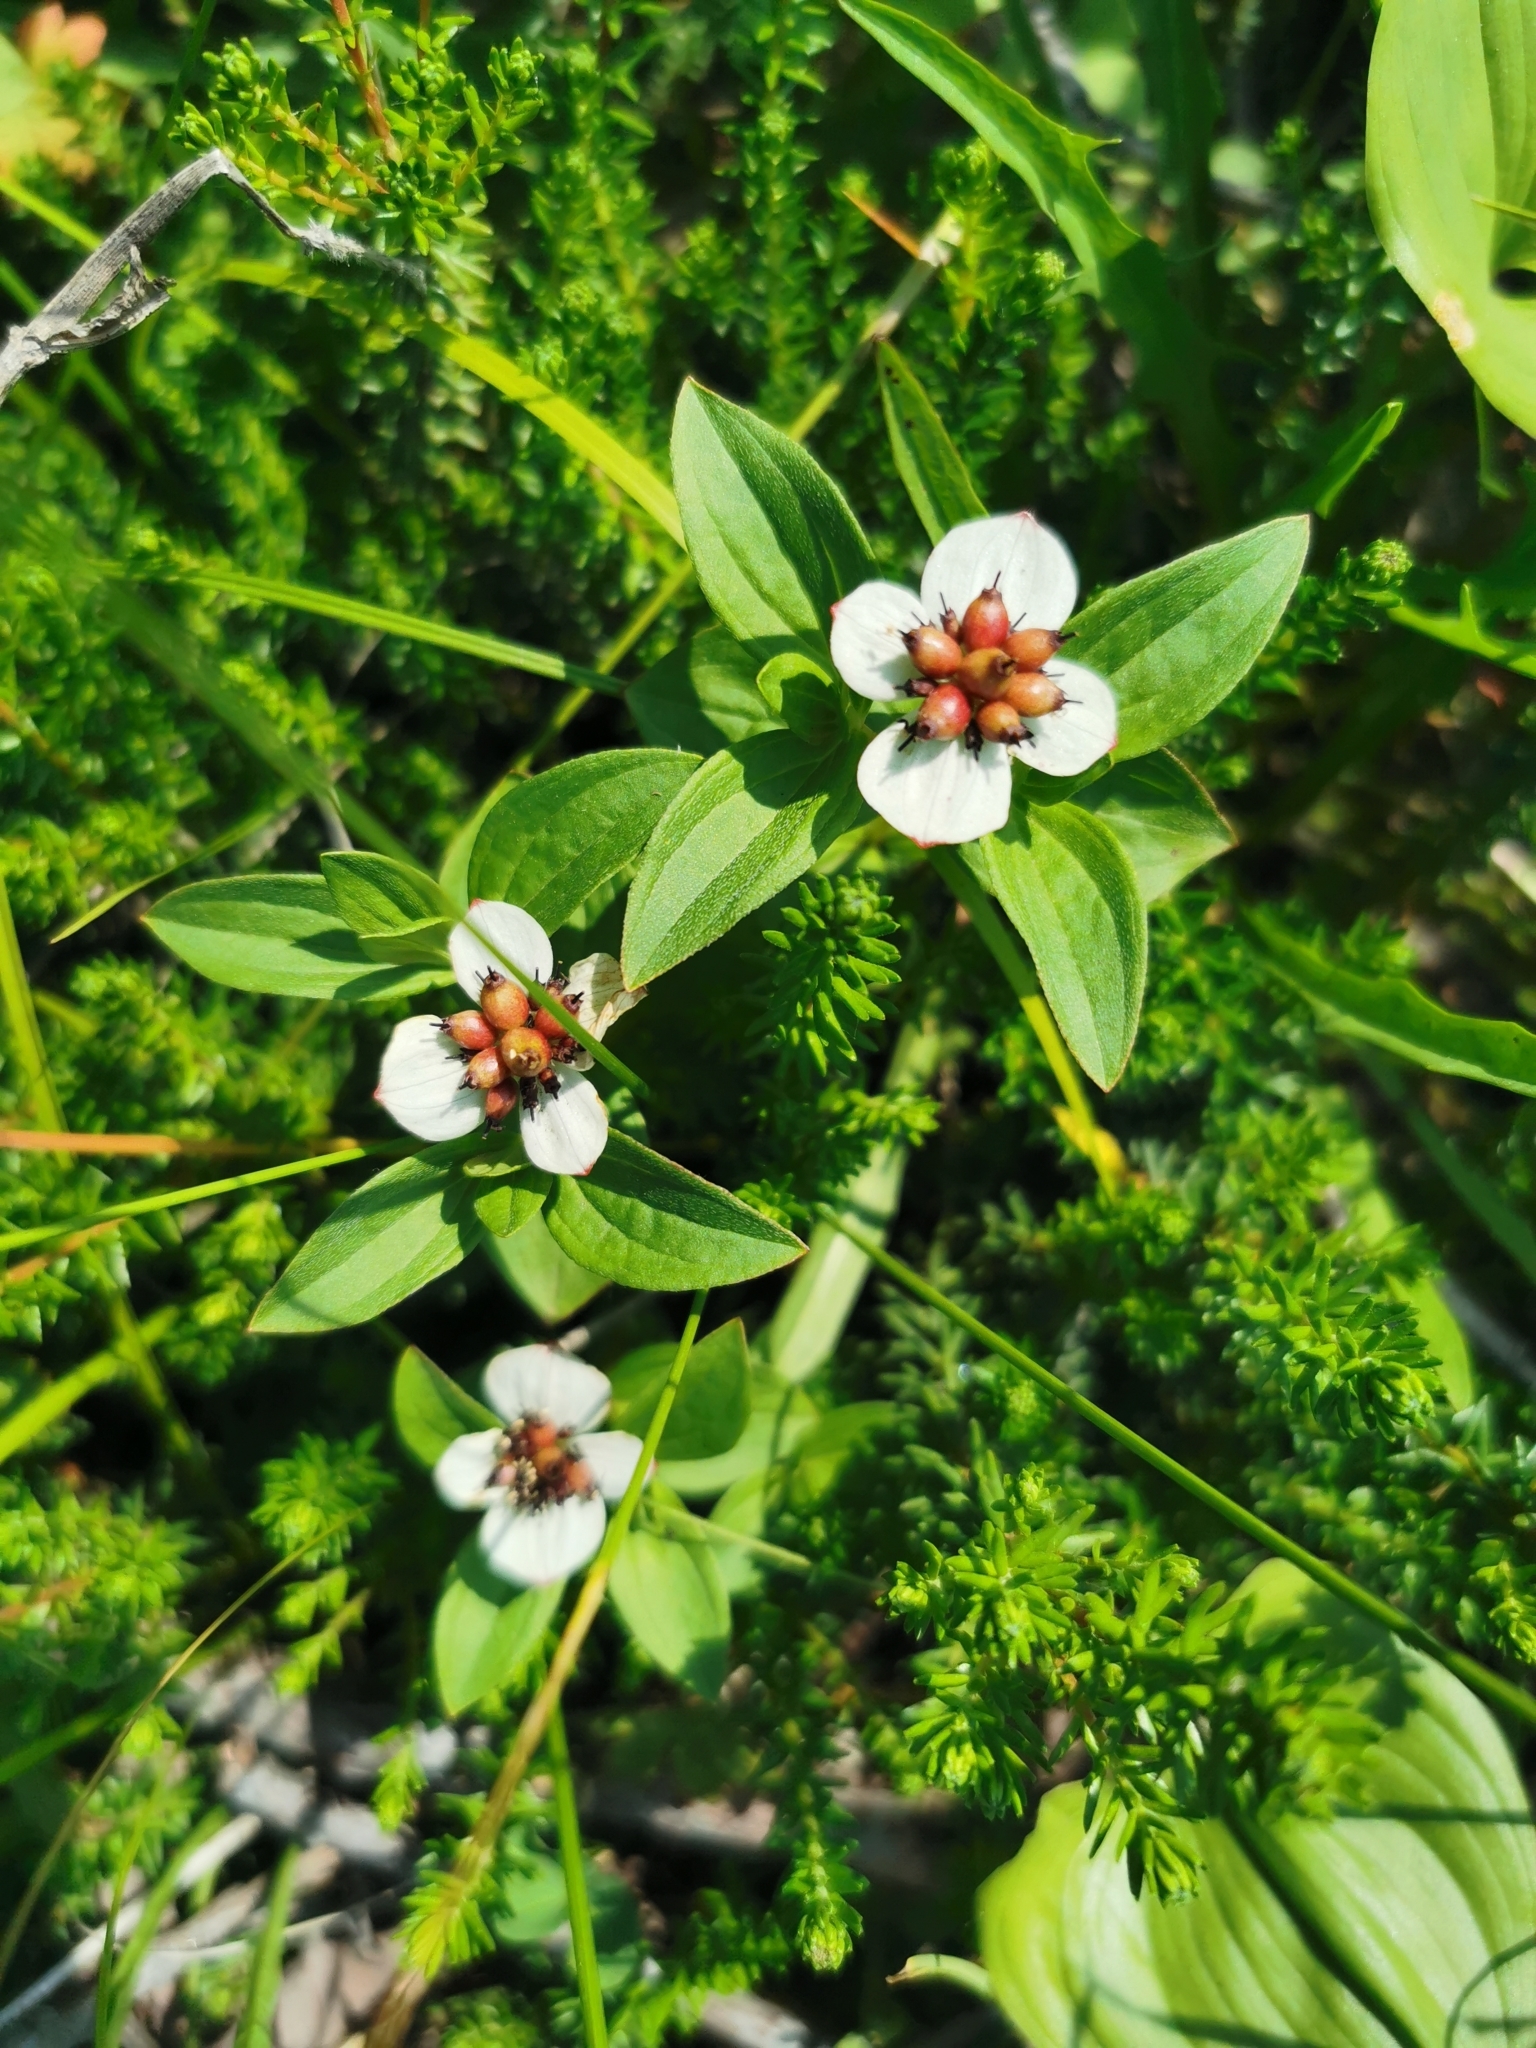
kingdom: Plantae
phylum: Tracheophyta
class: Magnoliopsida
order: Cornales
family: Cornaceae
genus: Cornus
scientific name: Cornus suecica
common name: Dwarf cornel
